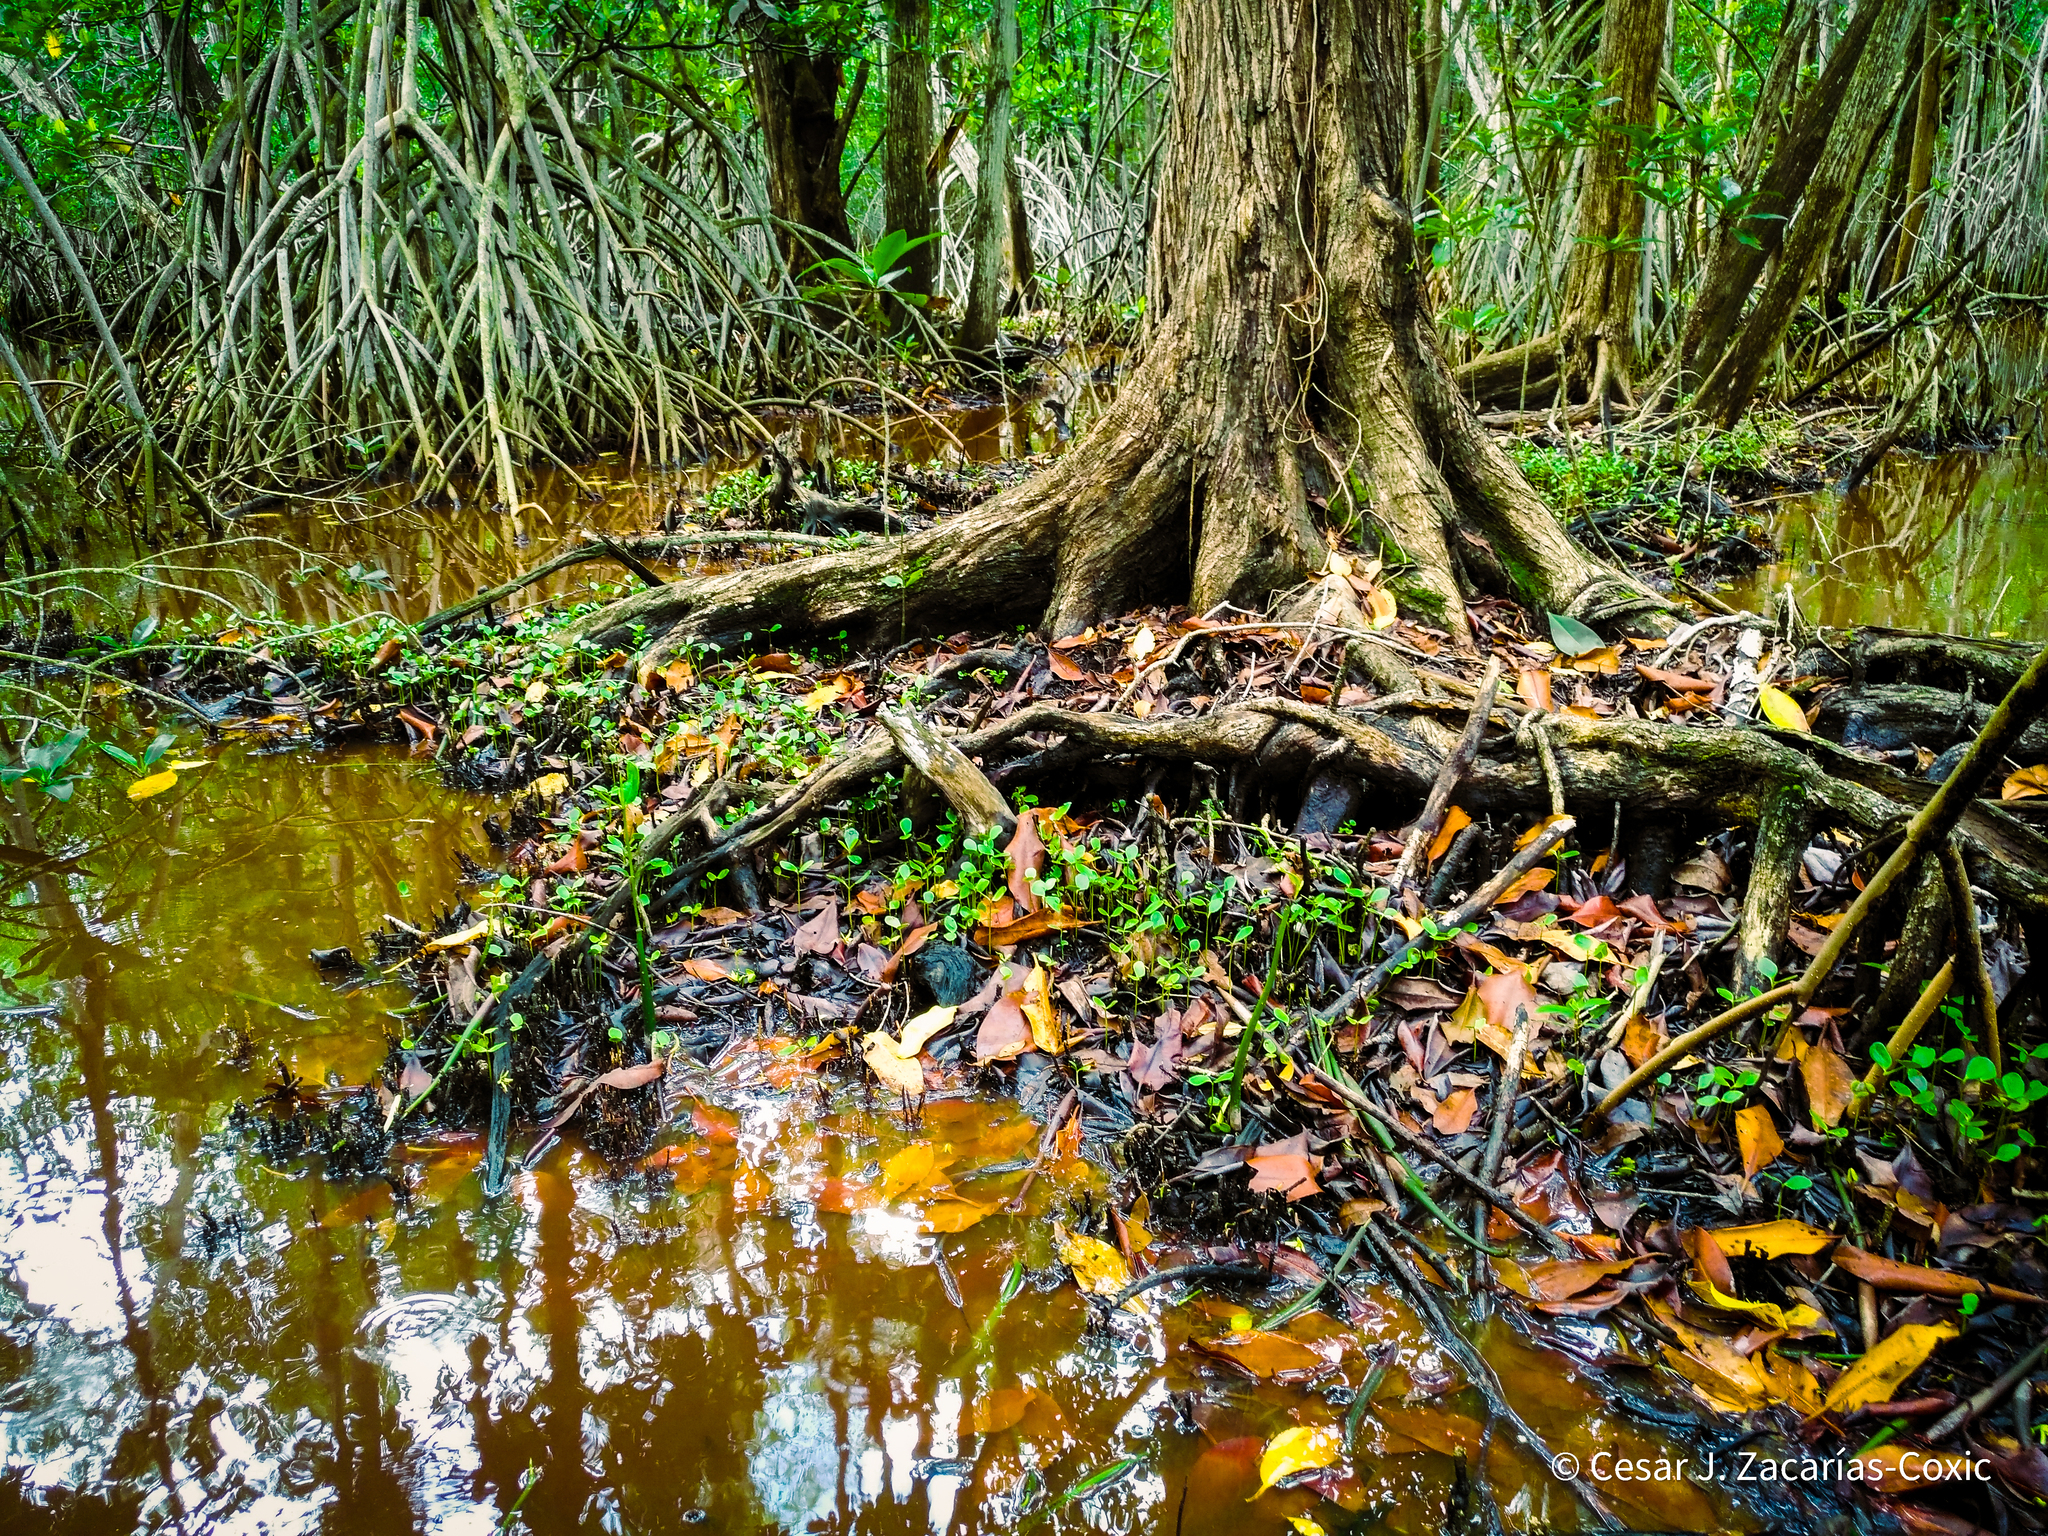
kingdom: Plantae
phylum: Tracheophyta
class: Magnoliopsida
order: Myrtales
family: Combretaceae
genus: Laguncularia
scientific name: Laguncularia racemosa
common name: White mangrove
